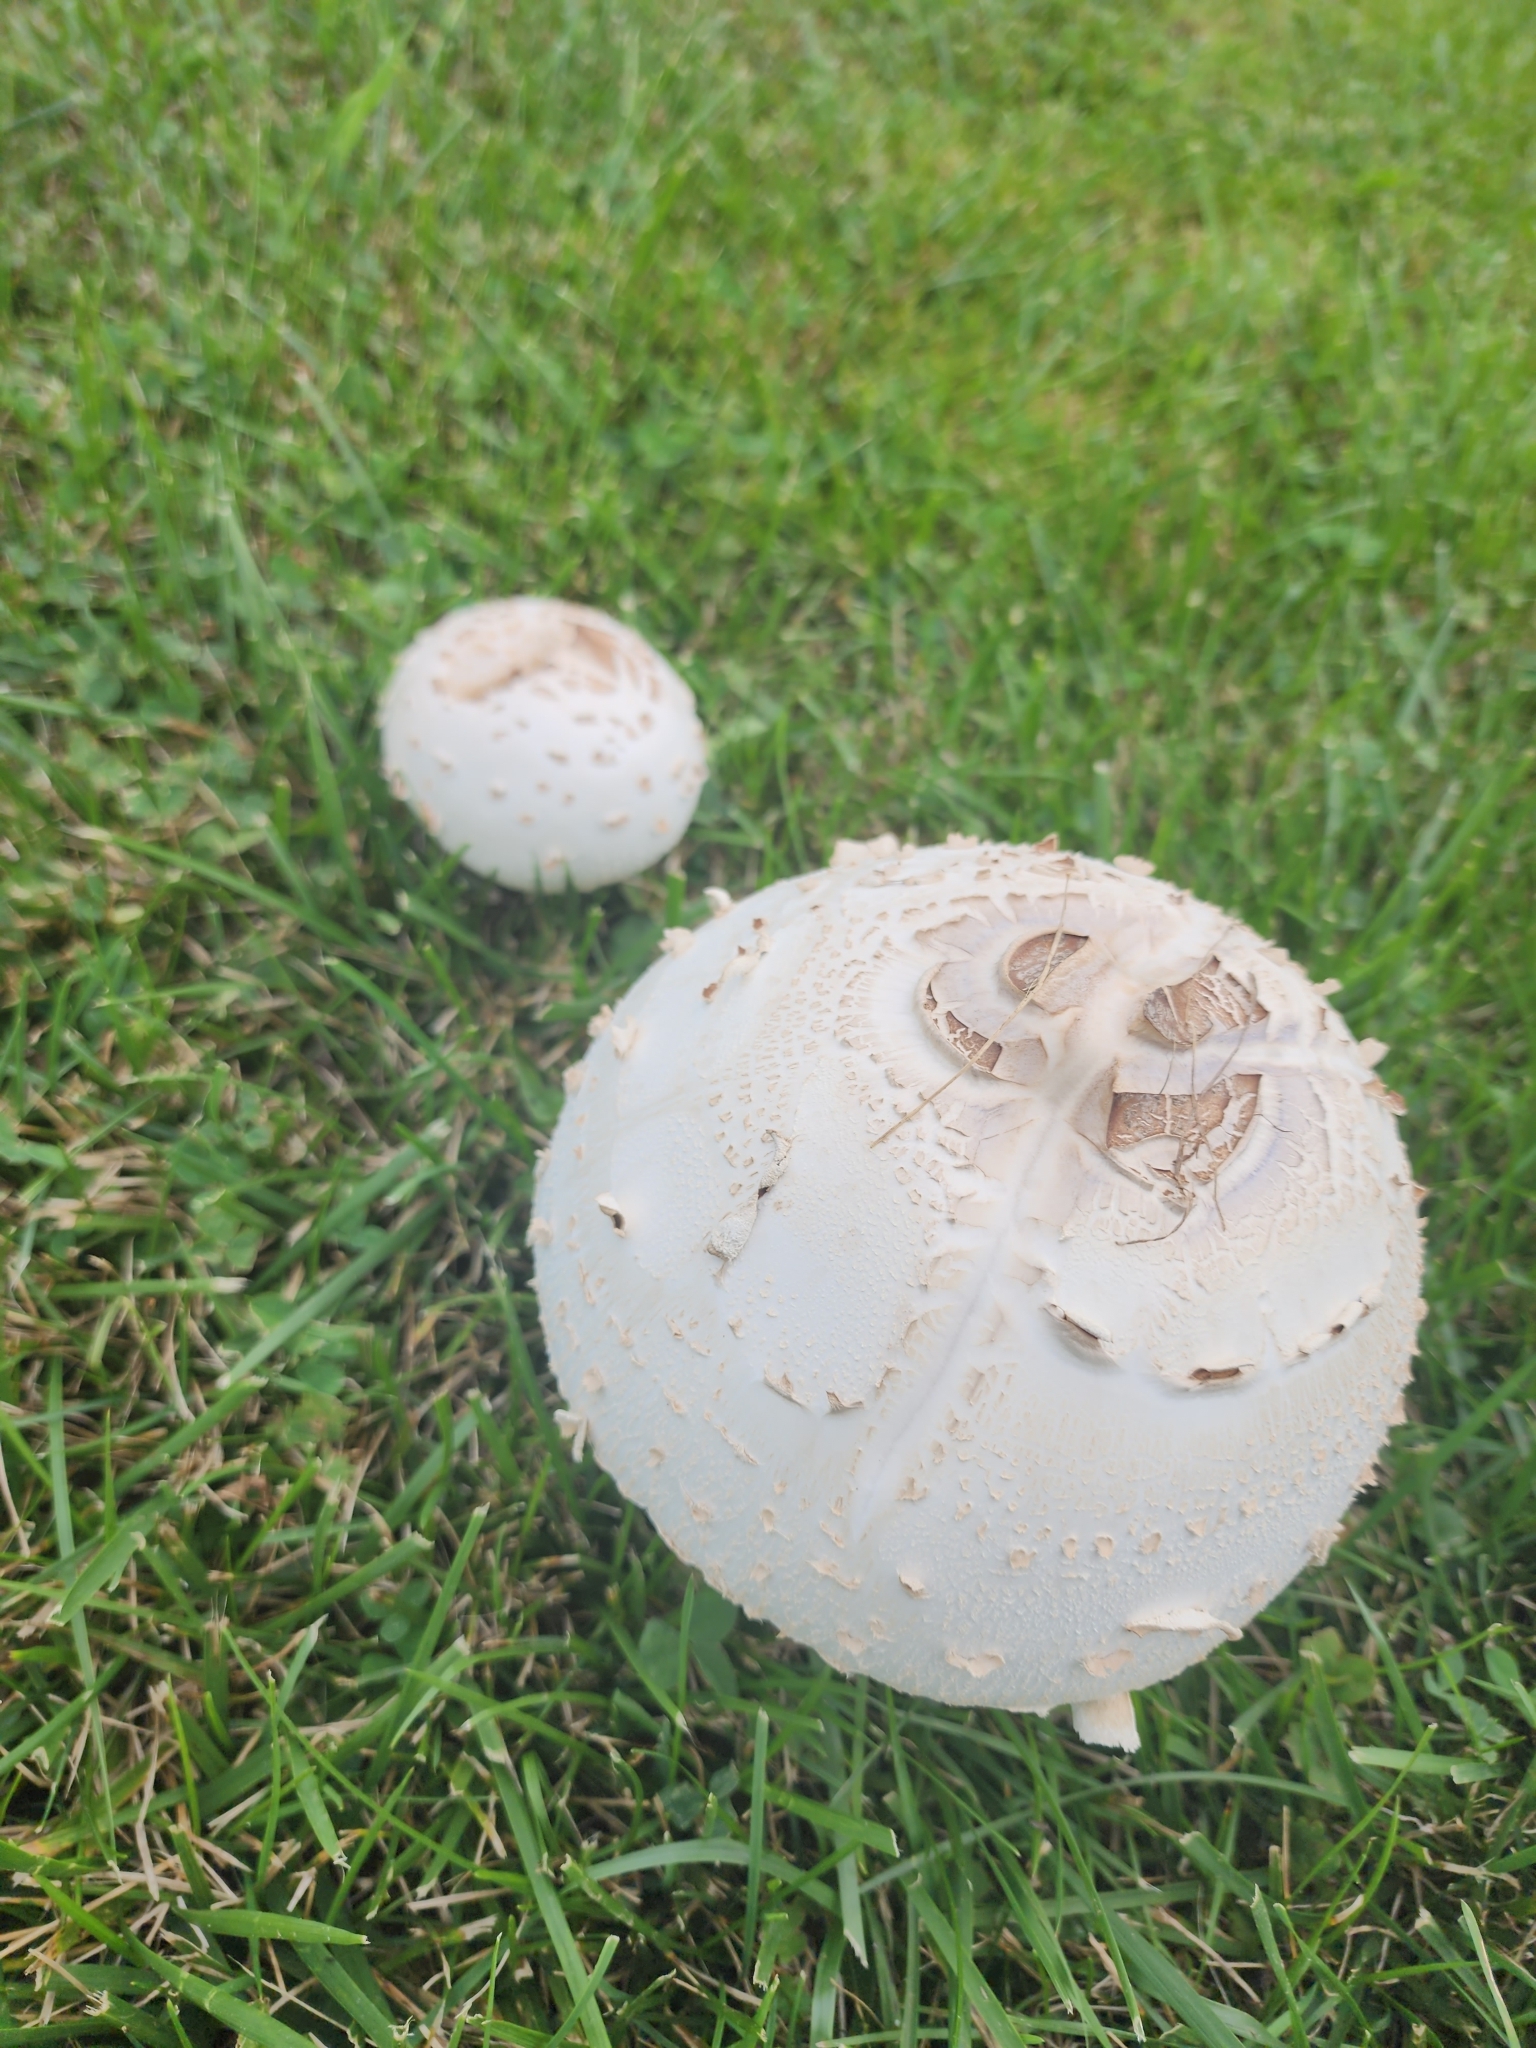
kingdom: Fungi
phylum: Basidiomycota
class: Agaricomycetes
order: Agaricales
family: Agaricaceae
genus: Chlorophyllum
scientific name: Chlorophyllum molybdites
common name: False parasol
